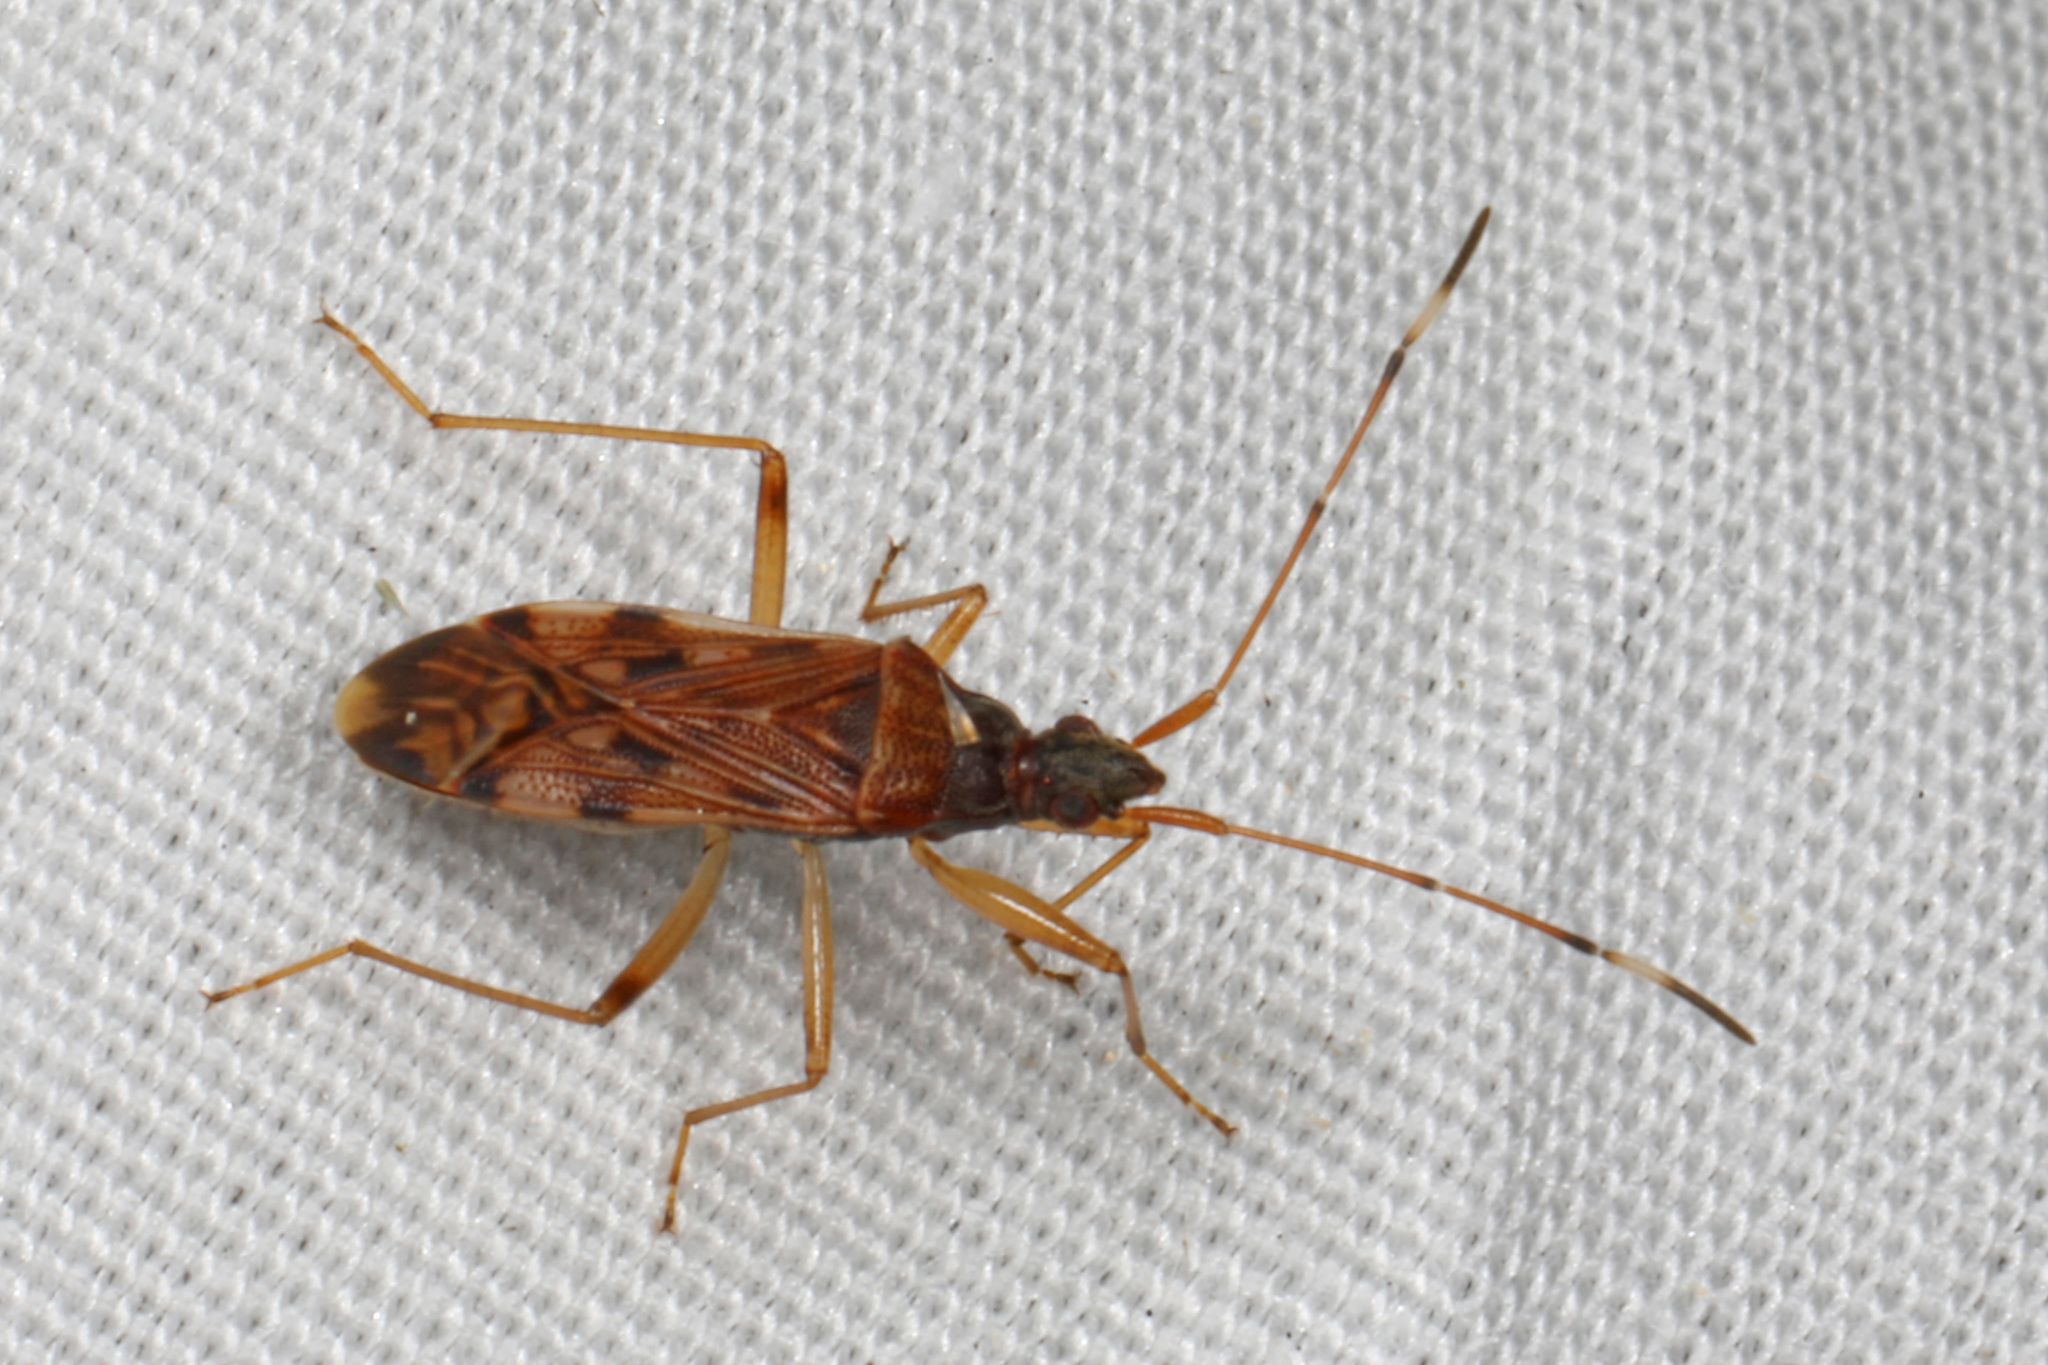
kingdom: Animalia
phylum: Arthropoda
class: Insecta
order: Hemiptera
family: Rhyparochromidae
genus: Ozophora
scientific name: Ozophora picturata
